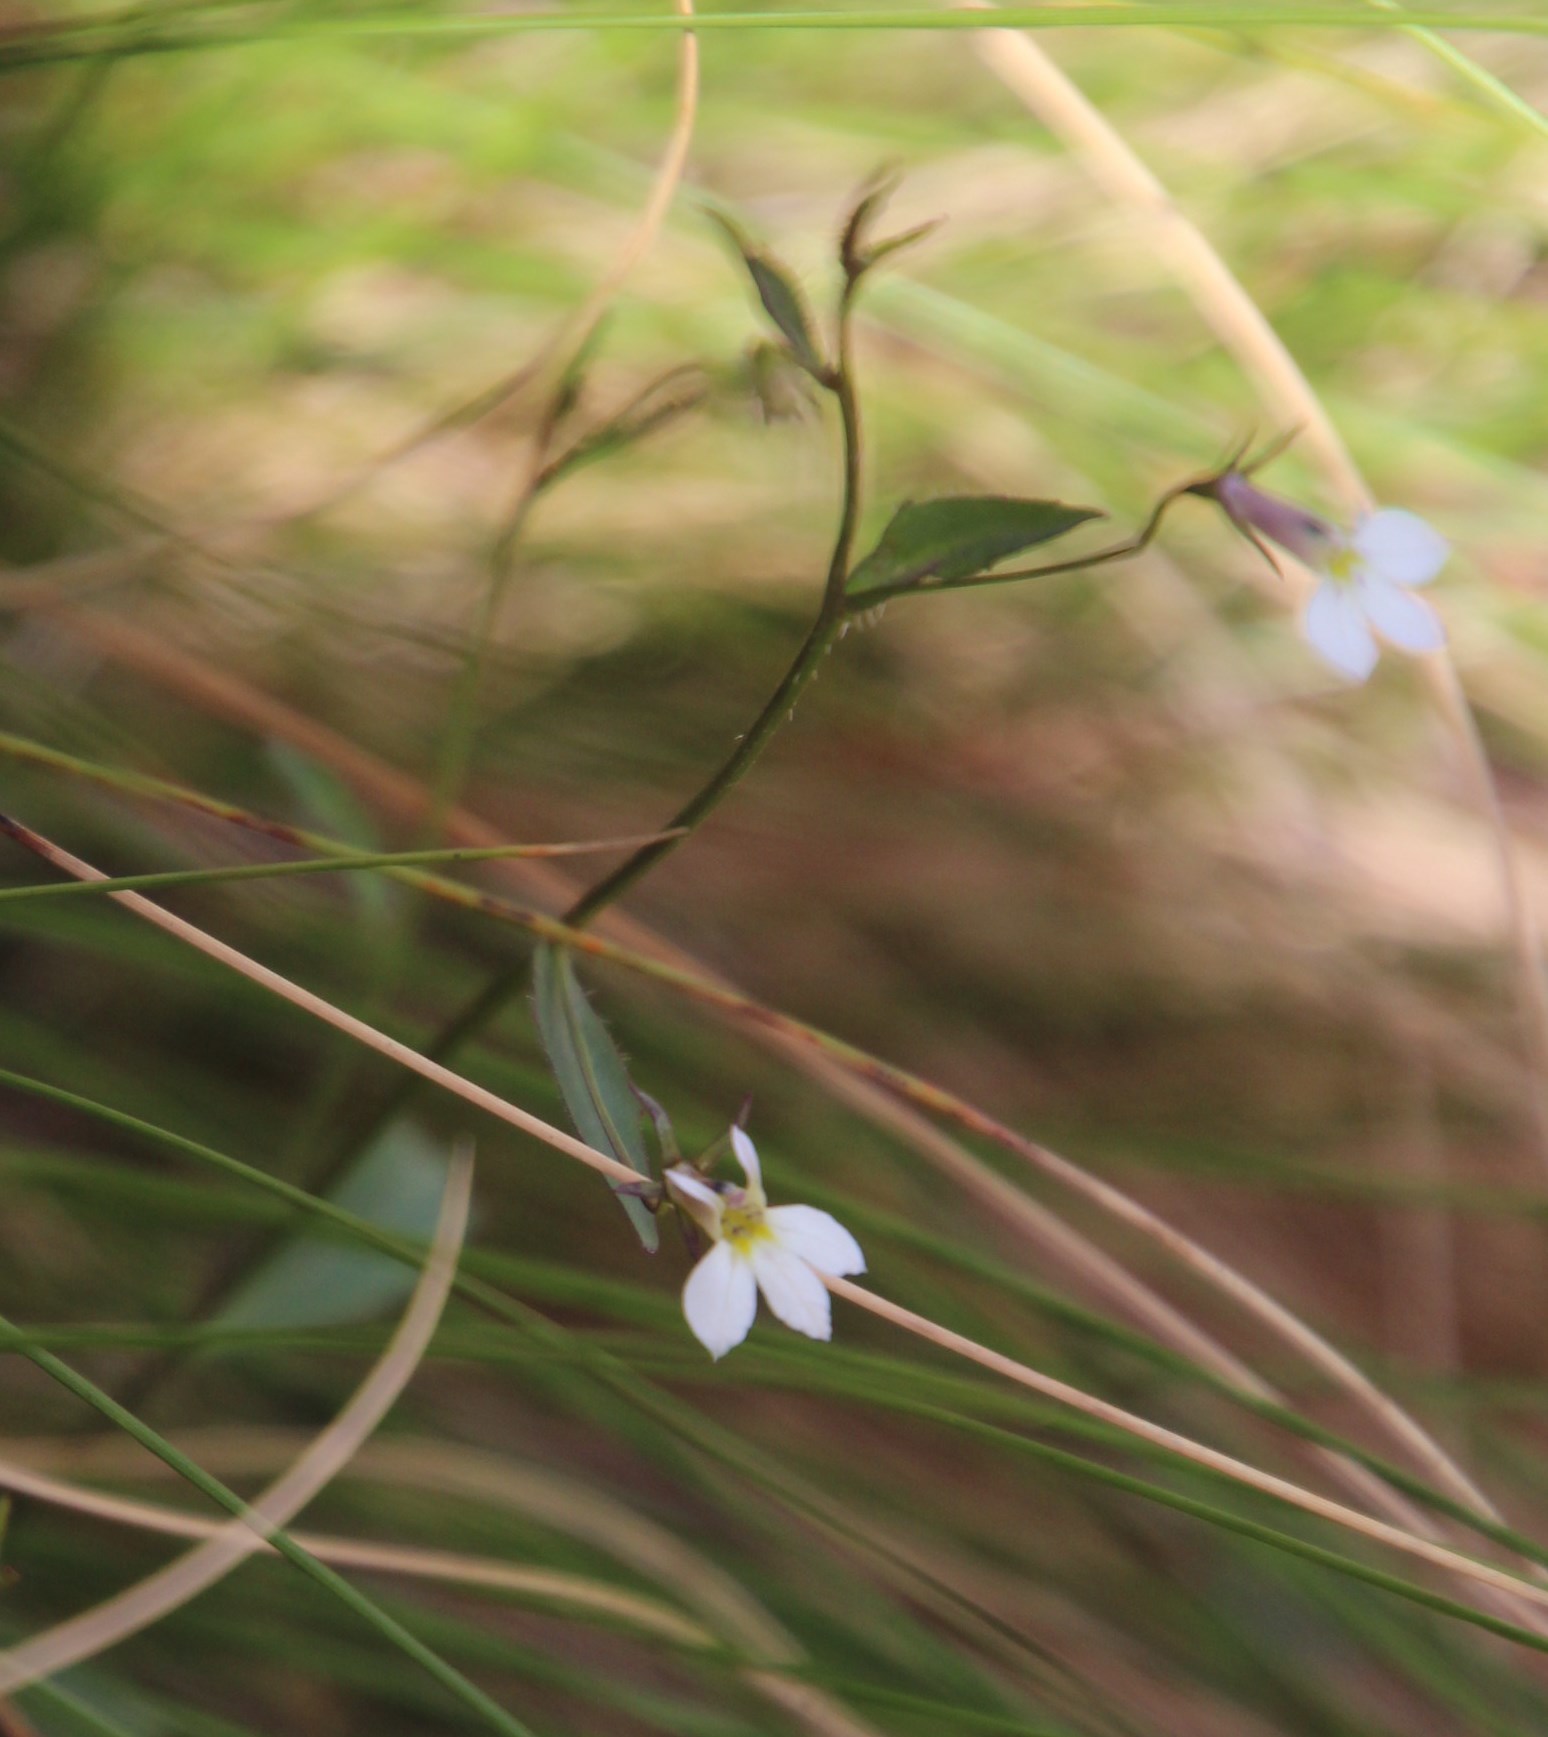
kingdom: Plantae
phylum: Tracheophyta
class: Magnoliopsida
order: Asterales
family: Campanulaceae
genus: Lobelia
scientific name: Lobelia pubescens
